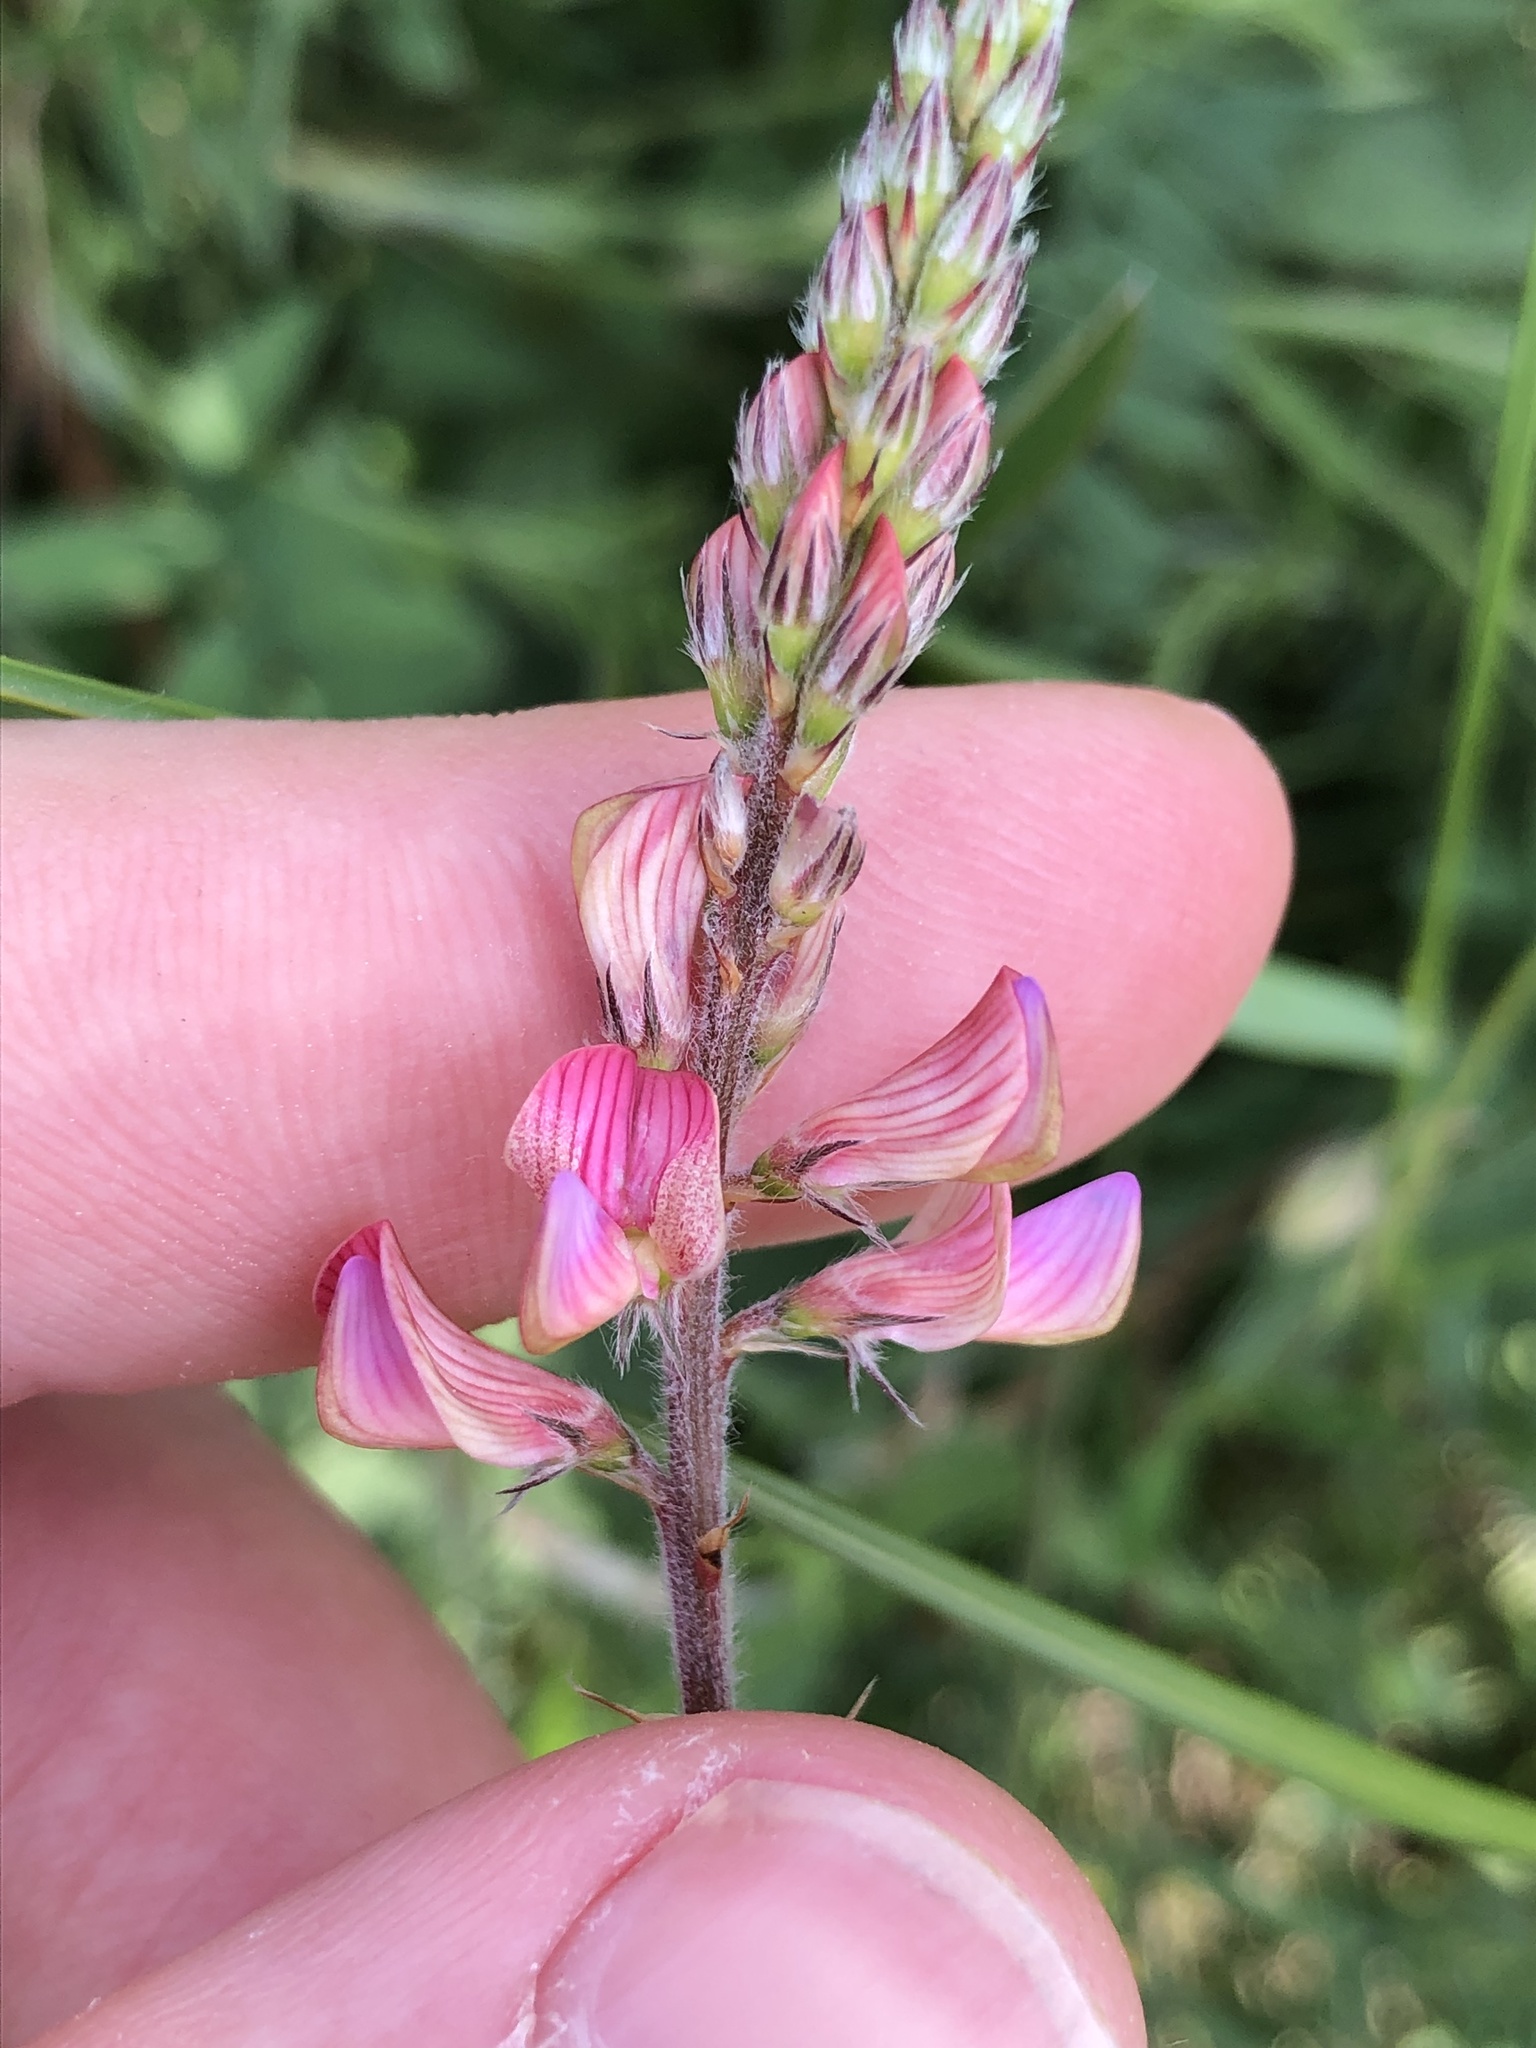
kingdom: Plantae
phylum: Tracheophyta
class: Magnoliopsida
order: Fabales
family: Fabaceae
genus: Onobrychis
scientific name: Onobrychis viciifolia
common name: Sainfoin
